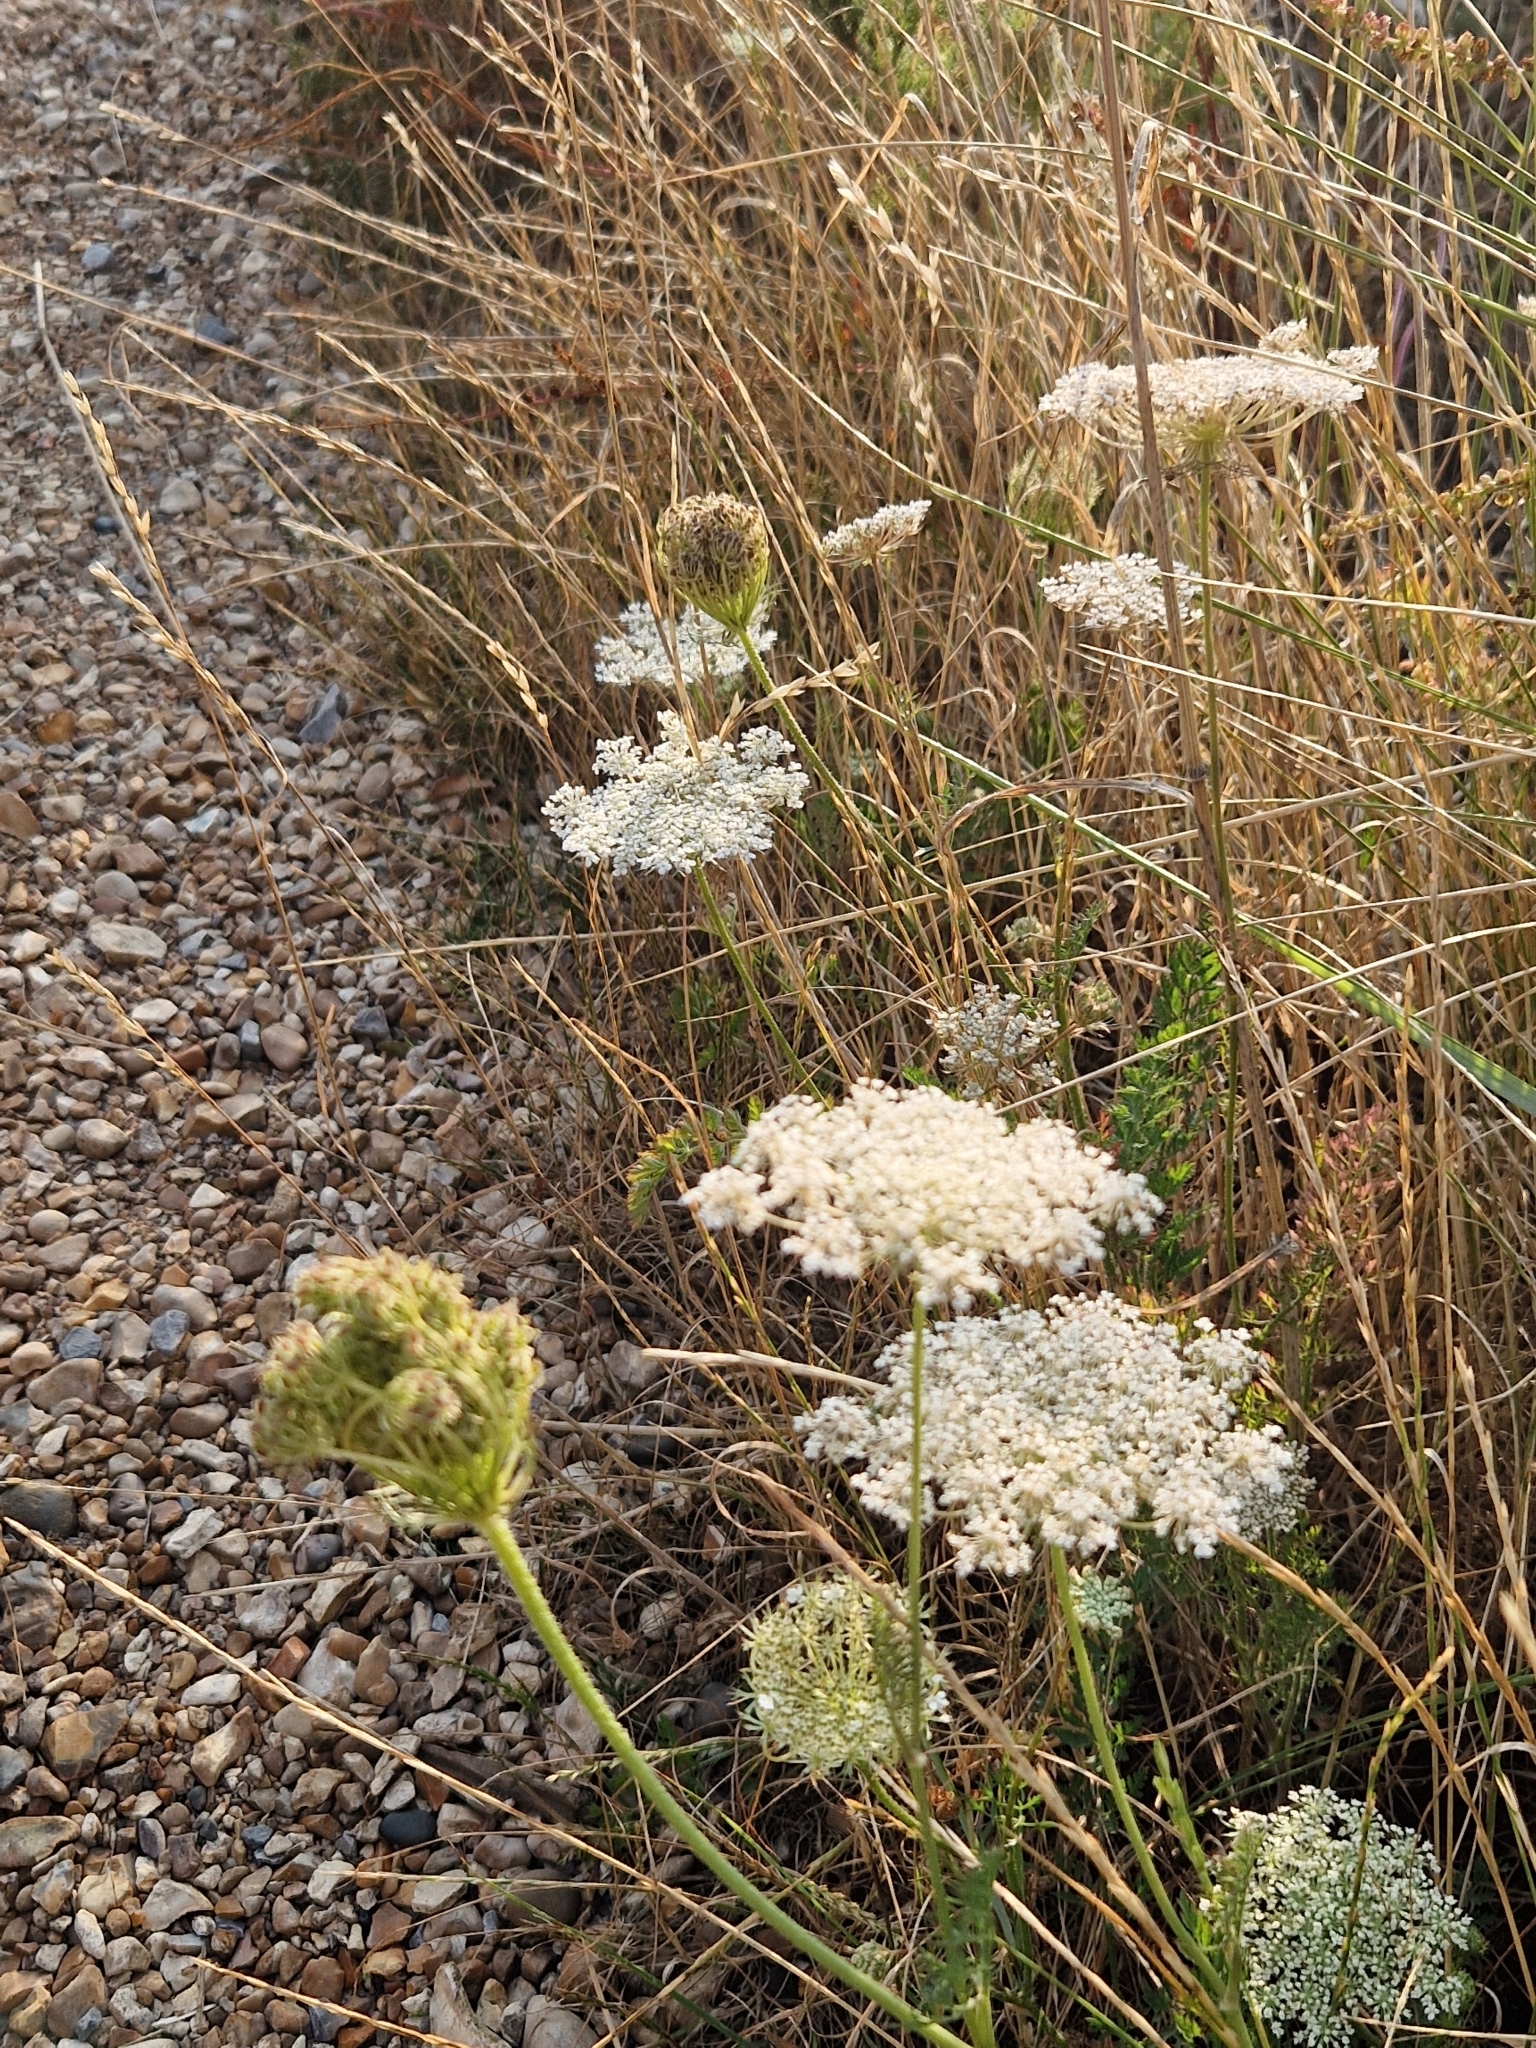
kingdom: Plantae
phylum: Tracheophyta
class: Magnoliopsida
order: Apiales
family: Apiaceae
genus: Daucus
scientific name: Daucus carota
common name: Wild carrot
